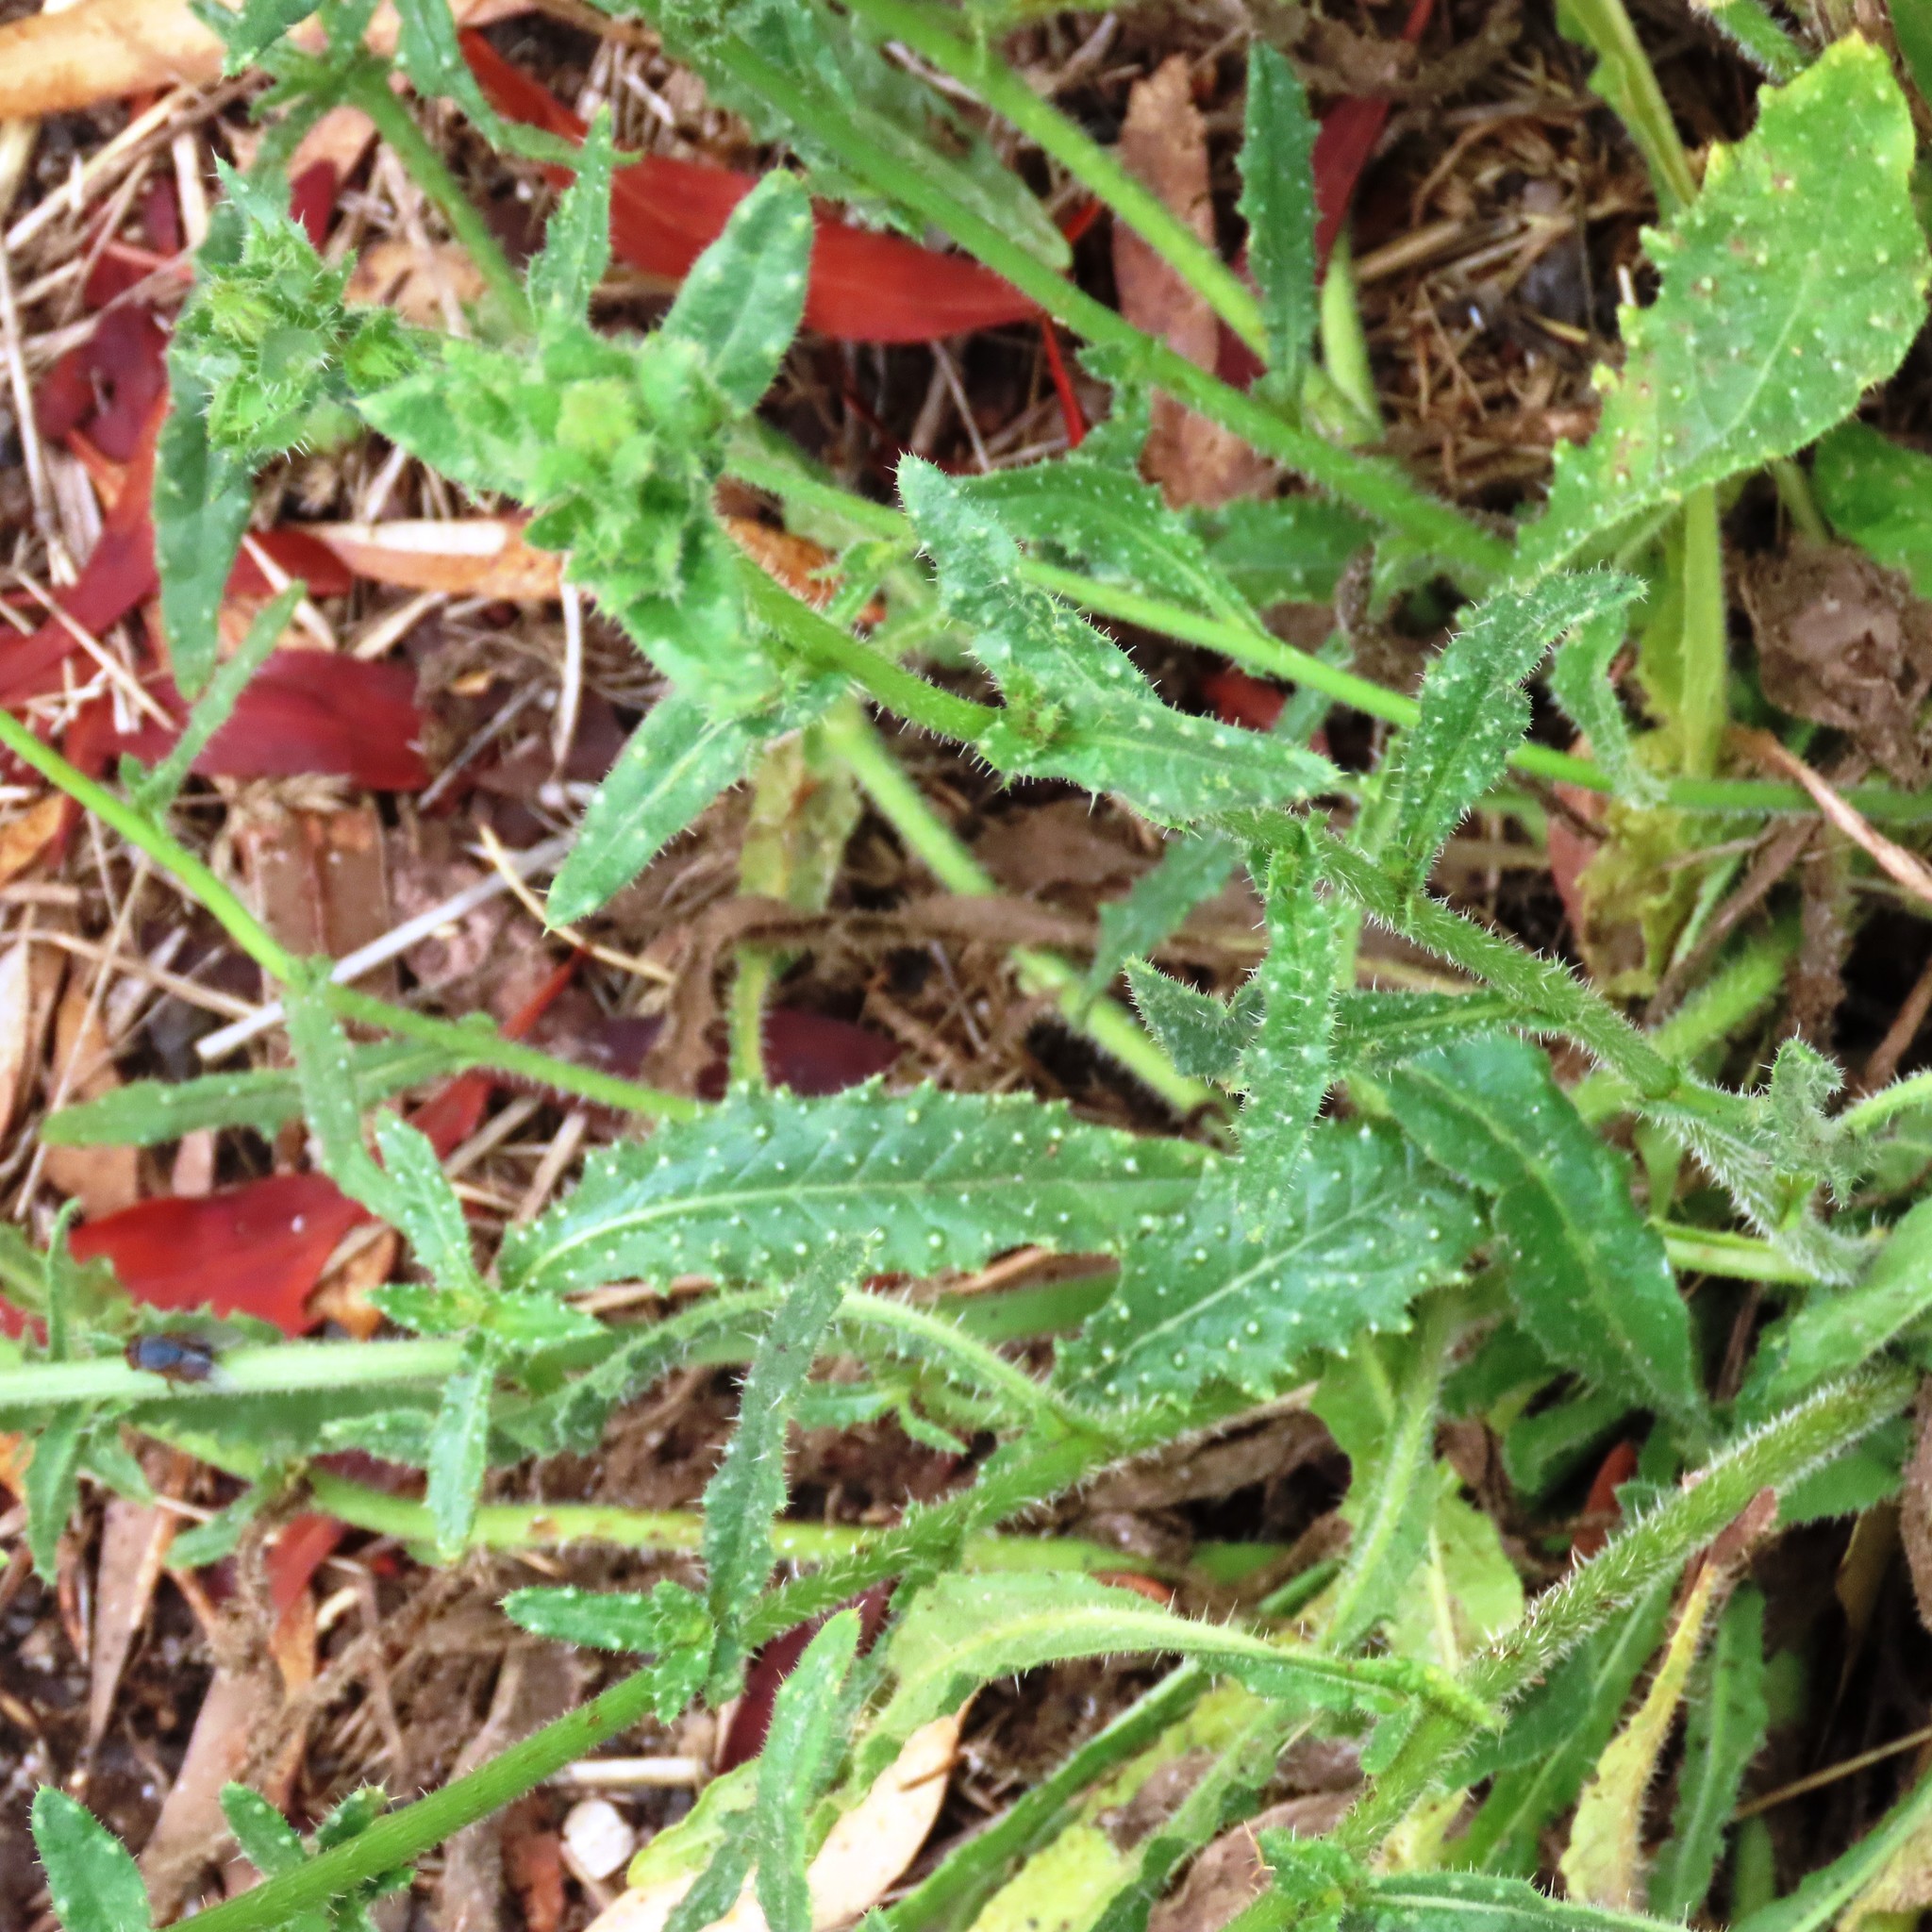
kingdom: Plantae
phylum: Tracheophyta
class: Magnoliopsida
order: Asterales
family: Asteraceae
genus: Helminthotheca
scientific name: Helminthotheca echioides
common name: Ox-tongue
